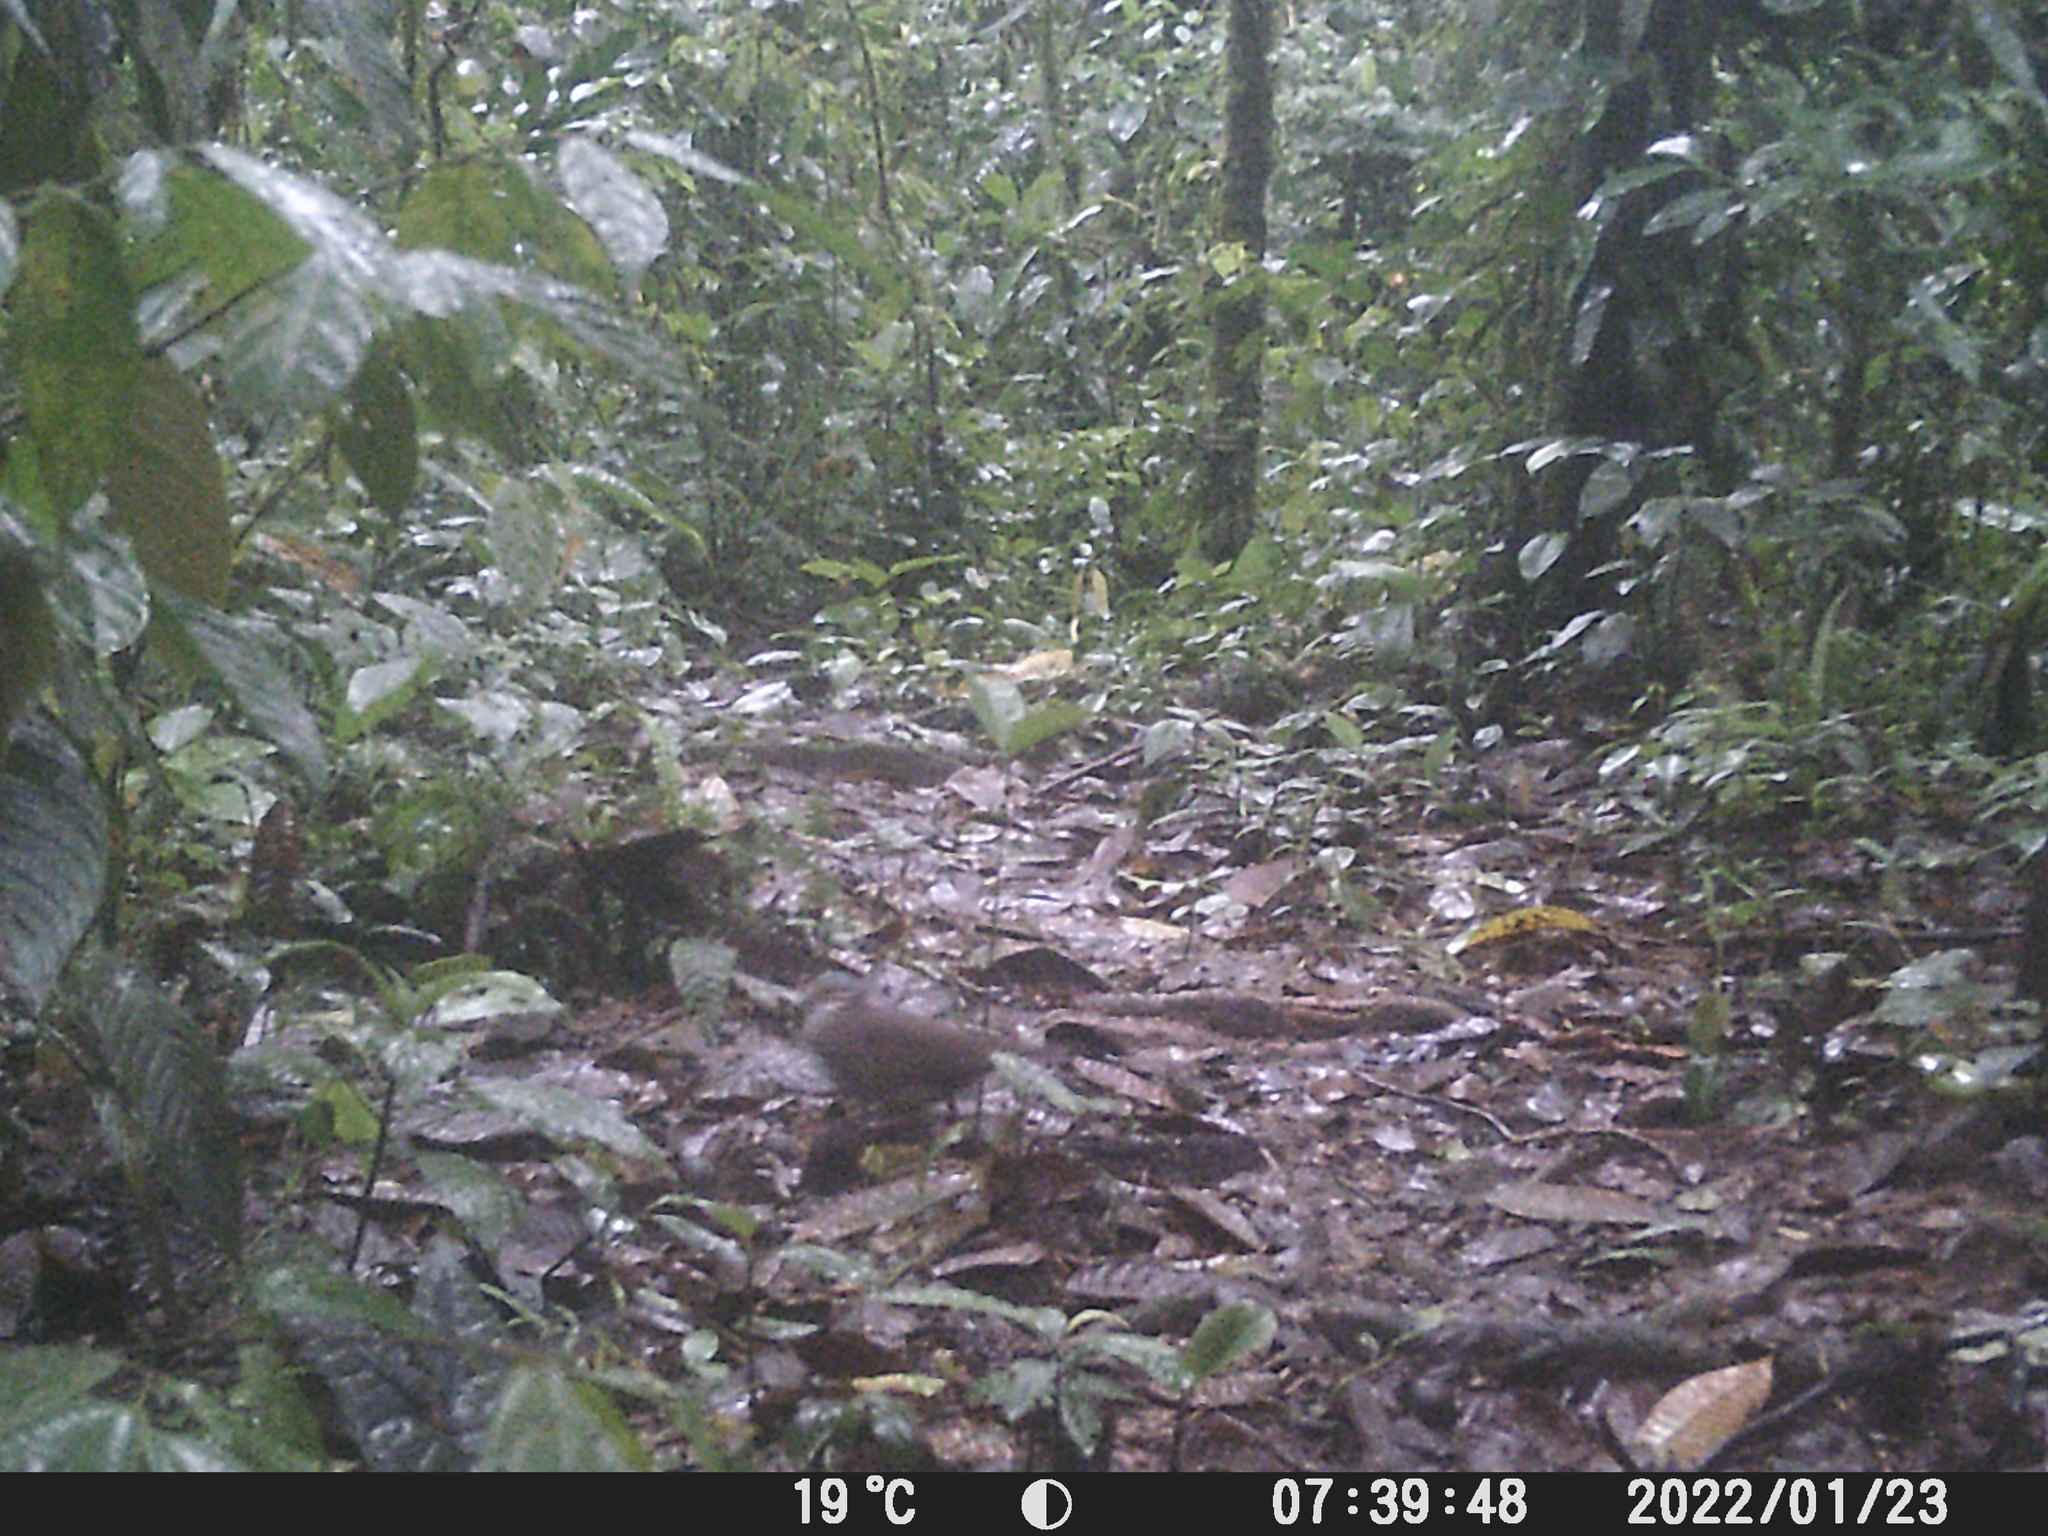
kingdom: Animalia
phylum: Chordata
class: Aves
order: Columbiformes
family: Columbidae
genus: Zentrygon
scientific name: Zentrygon frenata
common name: White-throated quail-dove
